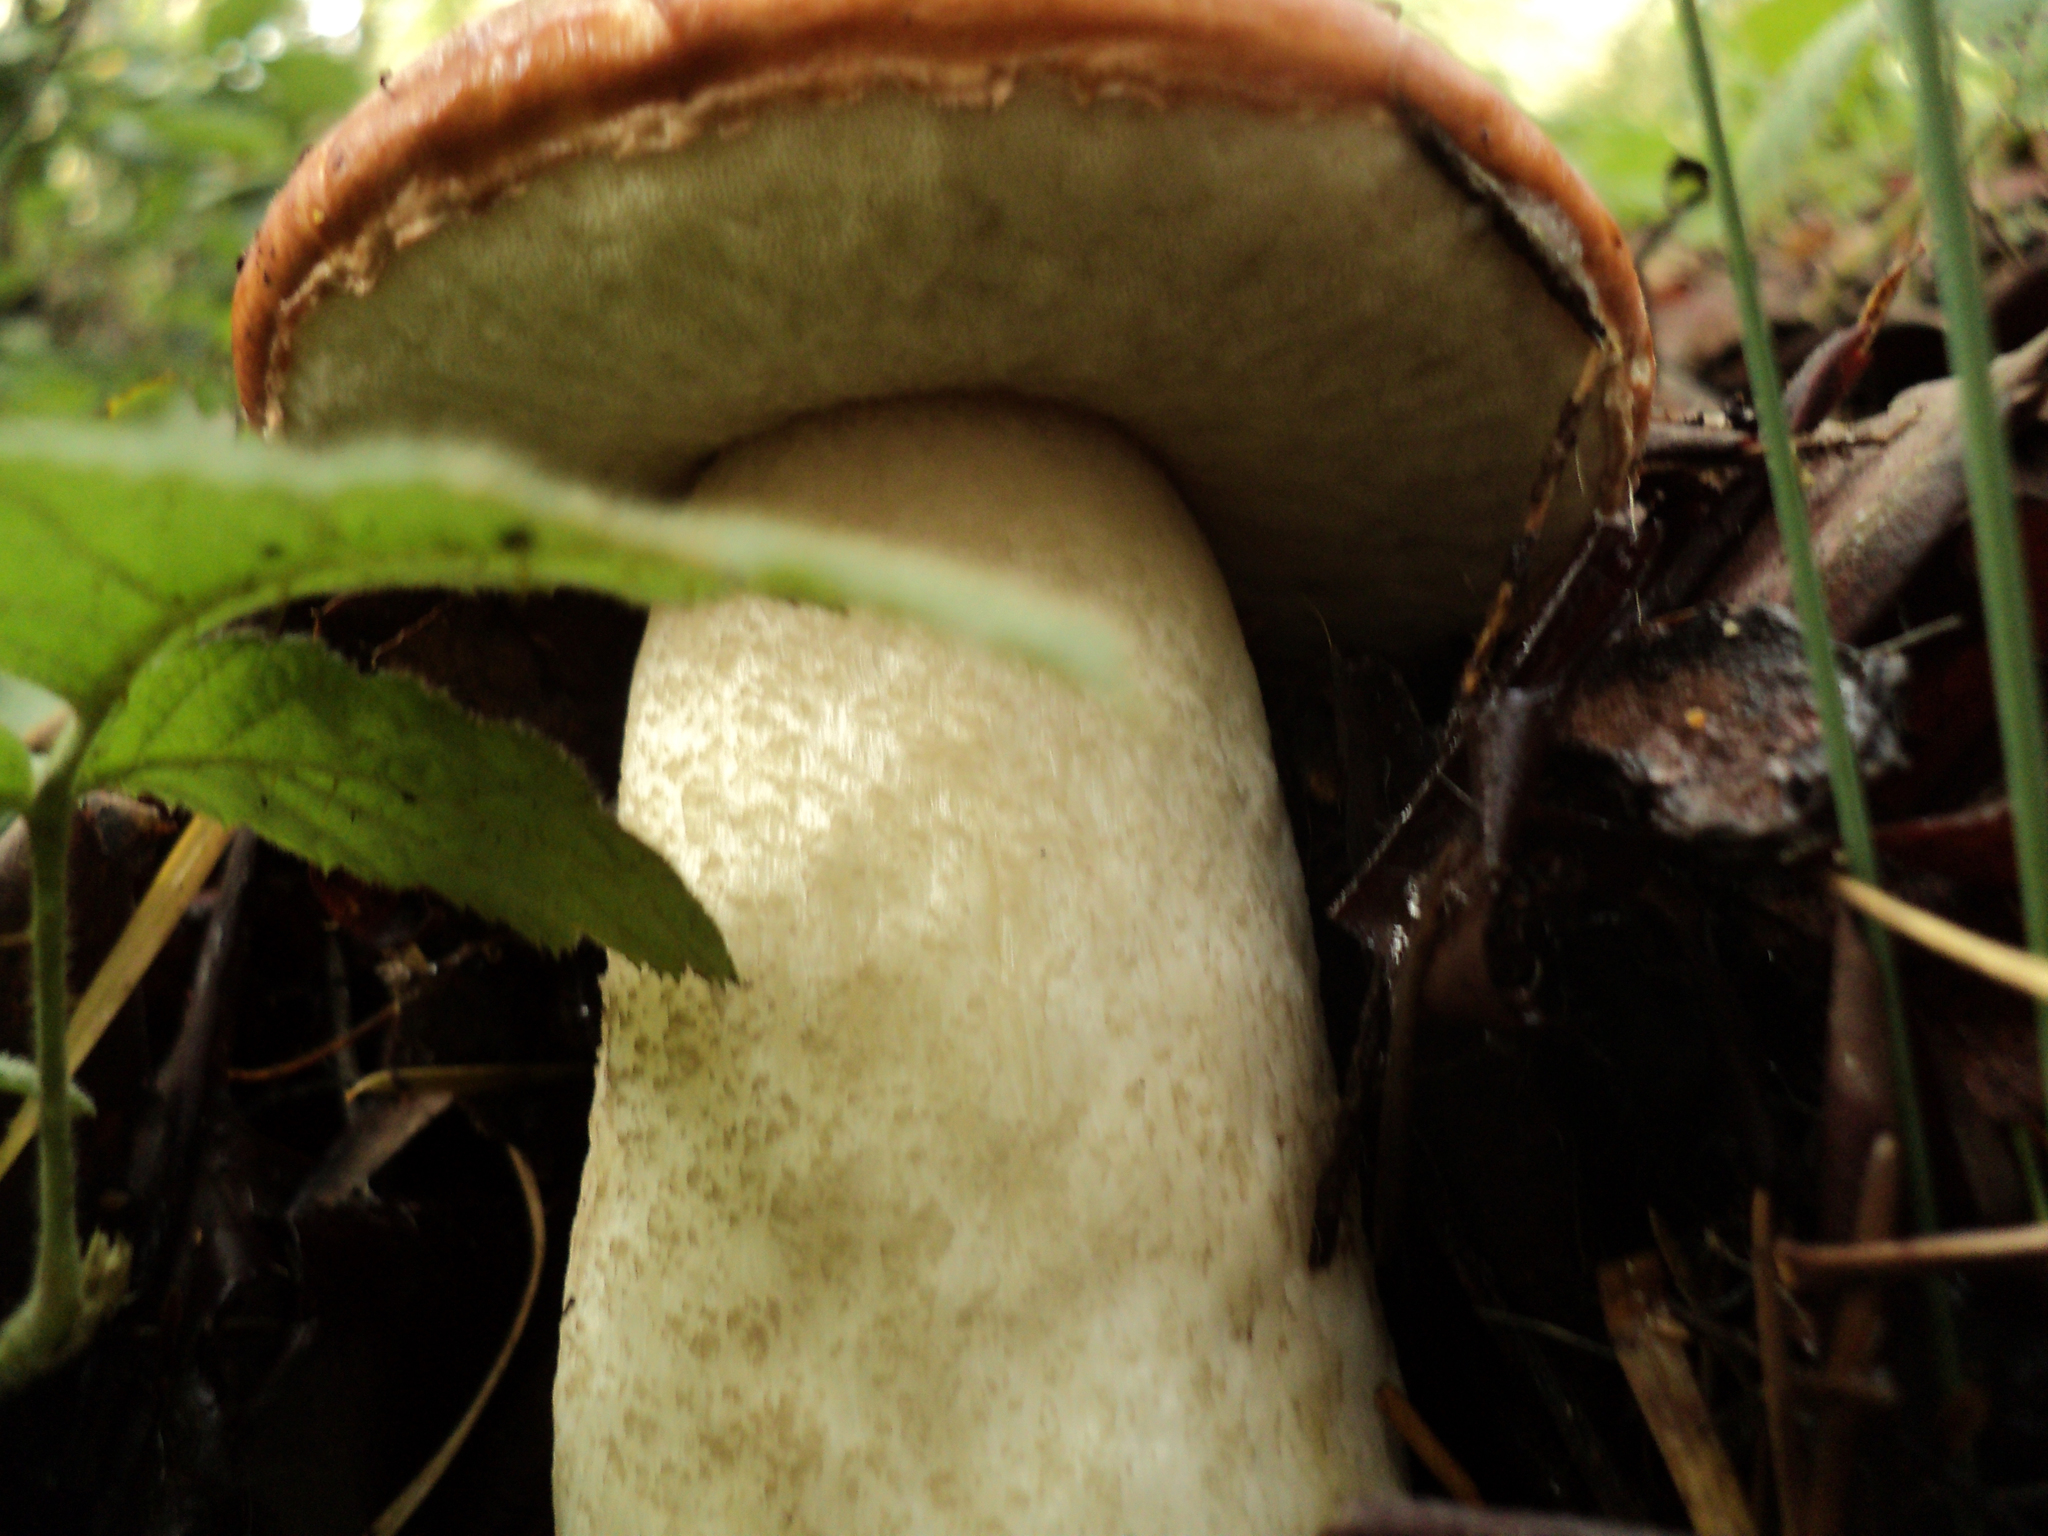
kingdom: Fungi
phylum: Basidiomycota
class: Agaricomycetes
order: Boletales
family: Boletaceae
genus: Leccinum
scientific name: Leccinum manzanitae
